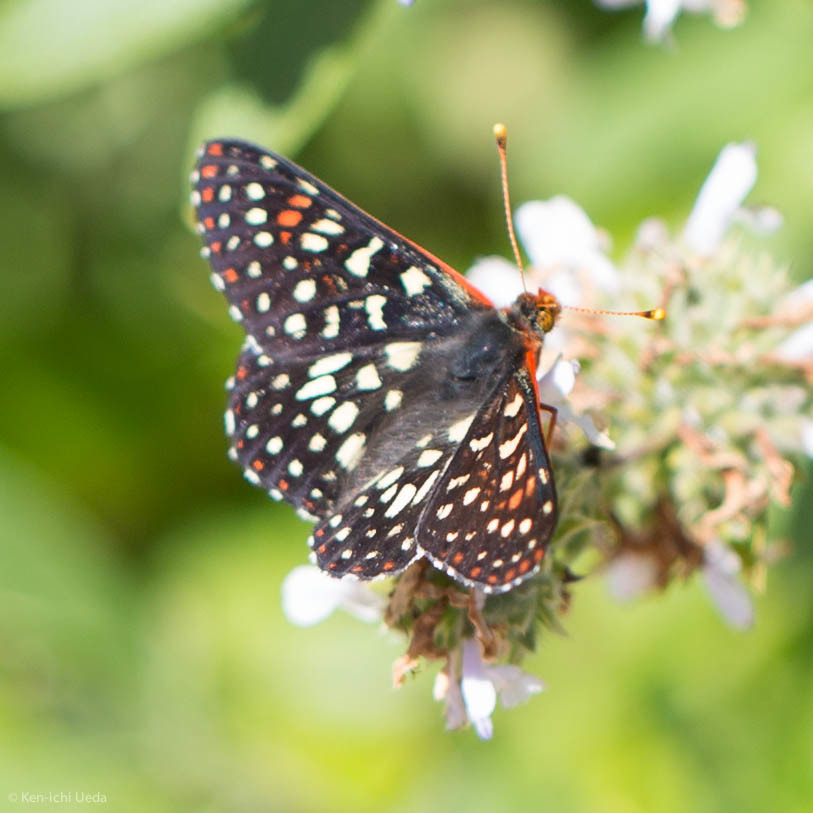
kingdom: Animalia
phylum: Arthropoda
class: Insecta
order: Lepidoptera
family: Nymphalidae
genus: Occidryas
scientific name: Occidryas chalcedona
